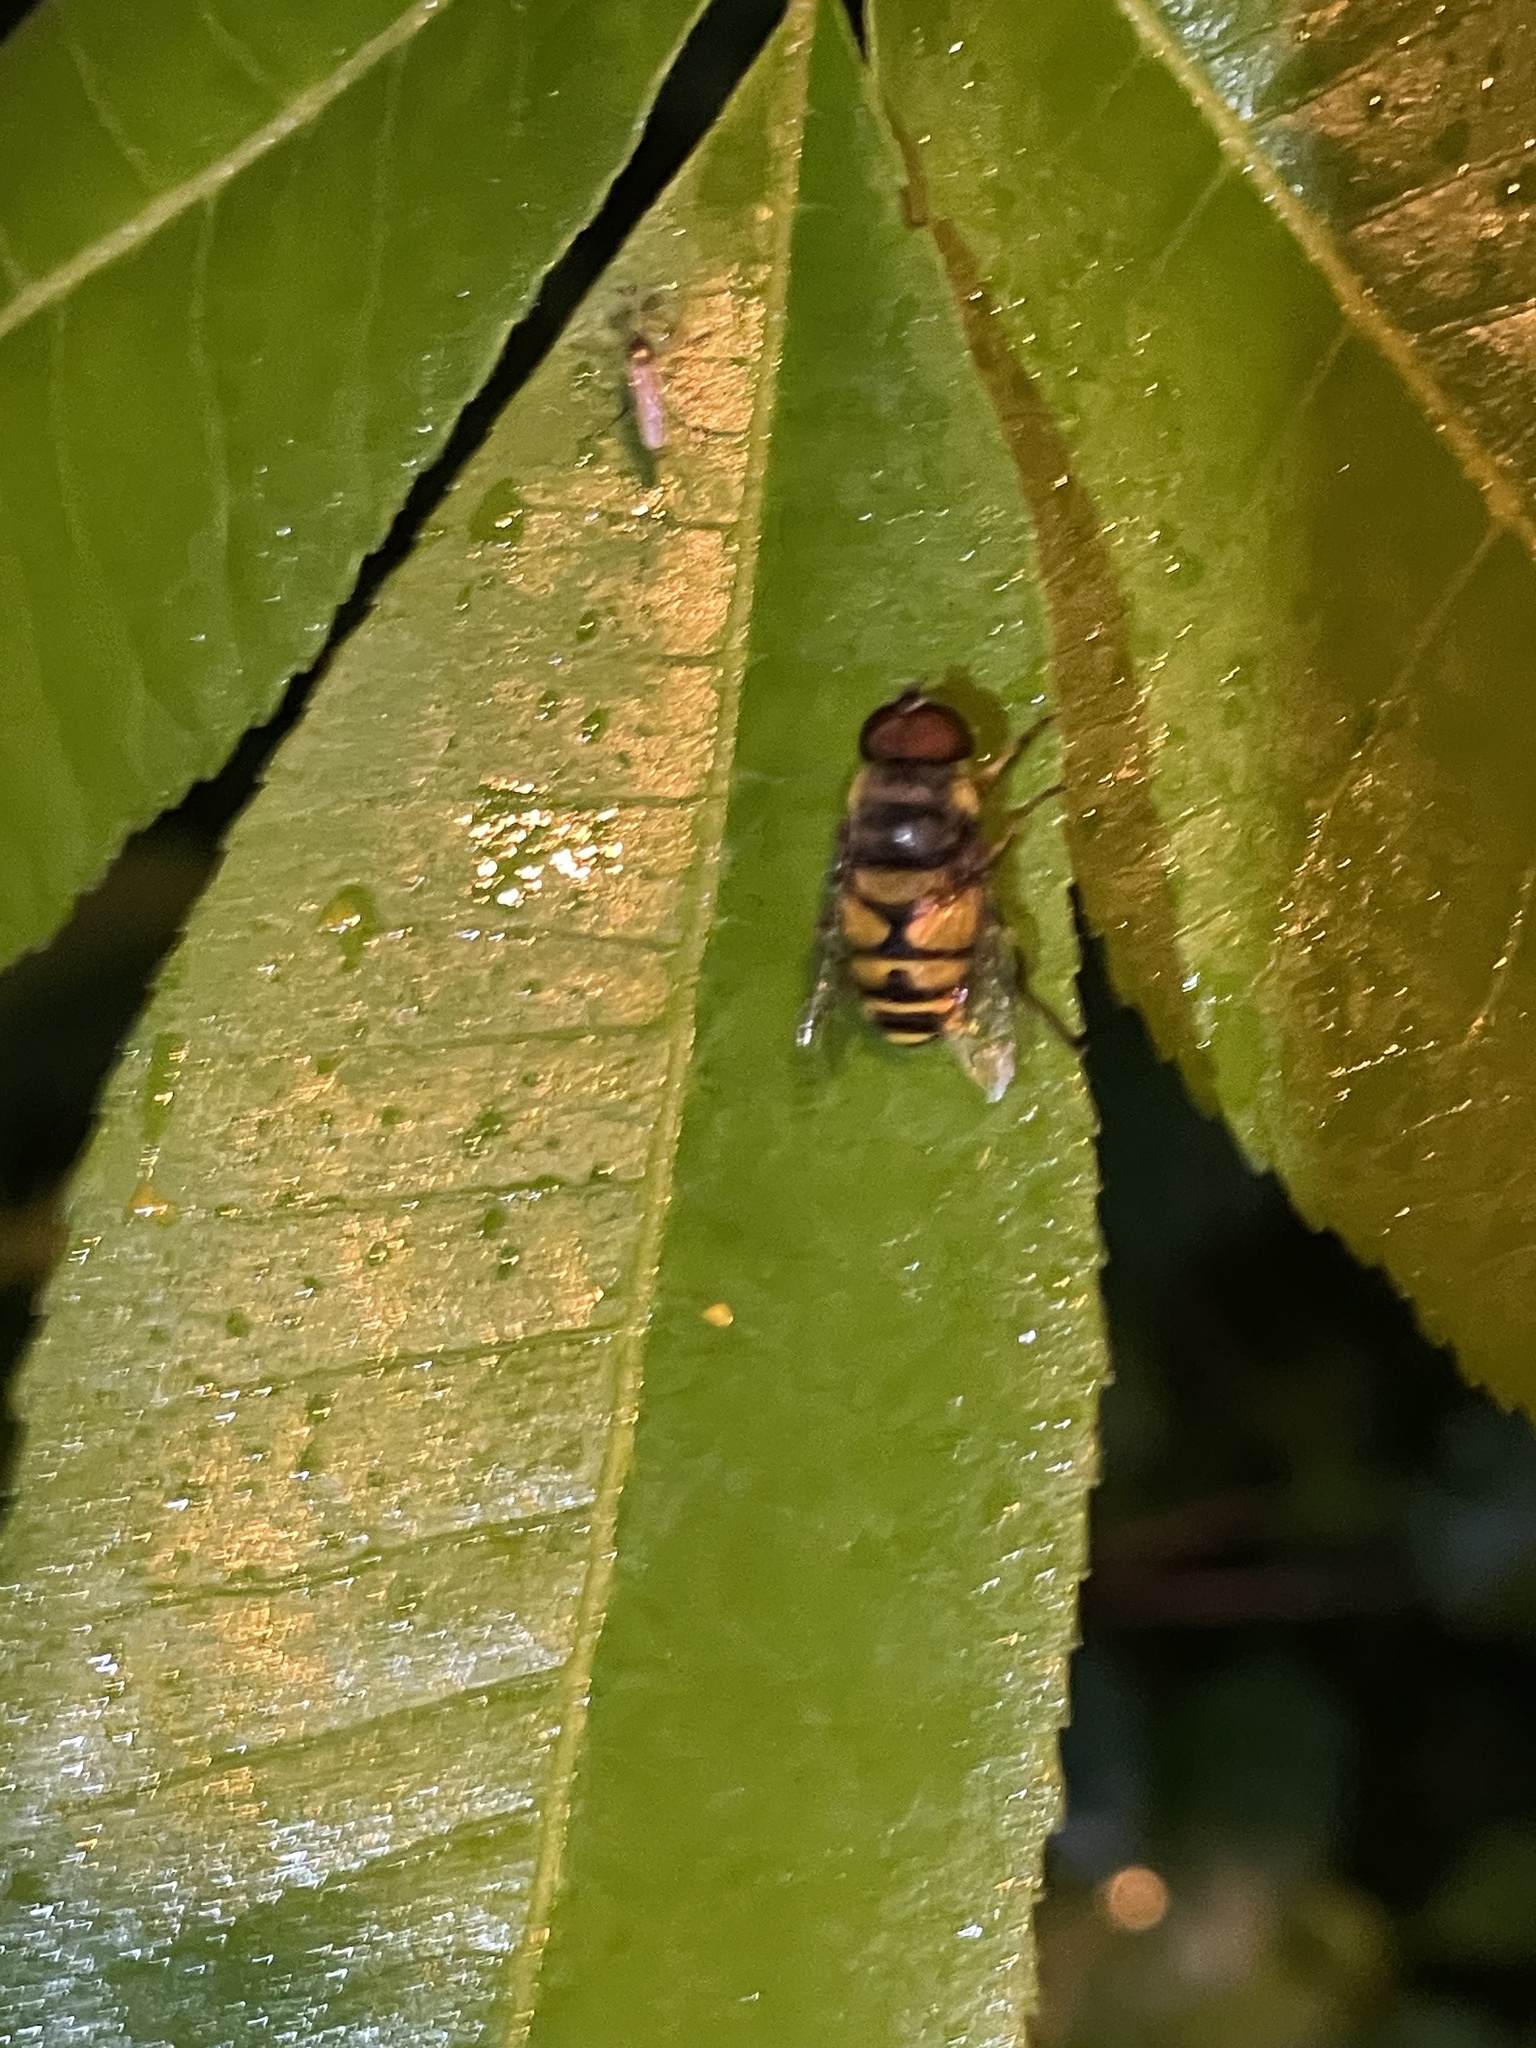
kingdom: Animalia
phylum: Arthropoda
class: Insecta
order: Diptera
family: Syrphidae
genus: Eristalis
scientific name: Eristalis transversa
